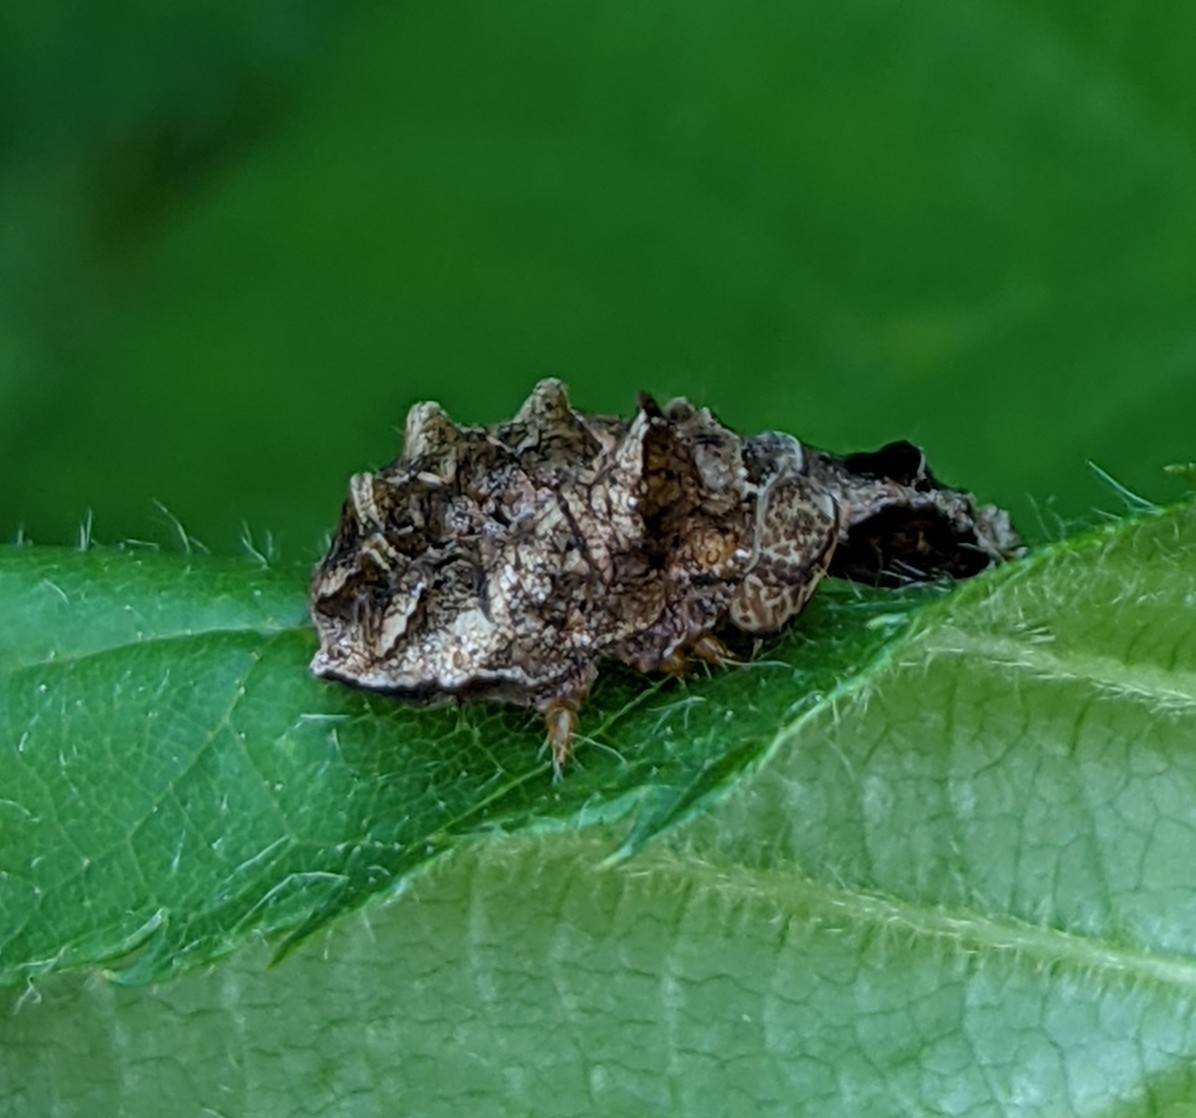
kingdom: Animalia
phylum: Arthropoda
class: Insecta
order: Lepidoptera
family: Drepanidae
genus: Thyatira
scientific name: Thyatira batis
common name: Peach blossom
